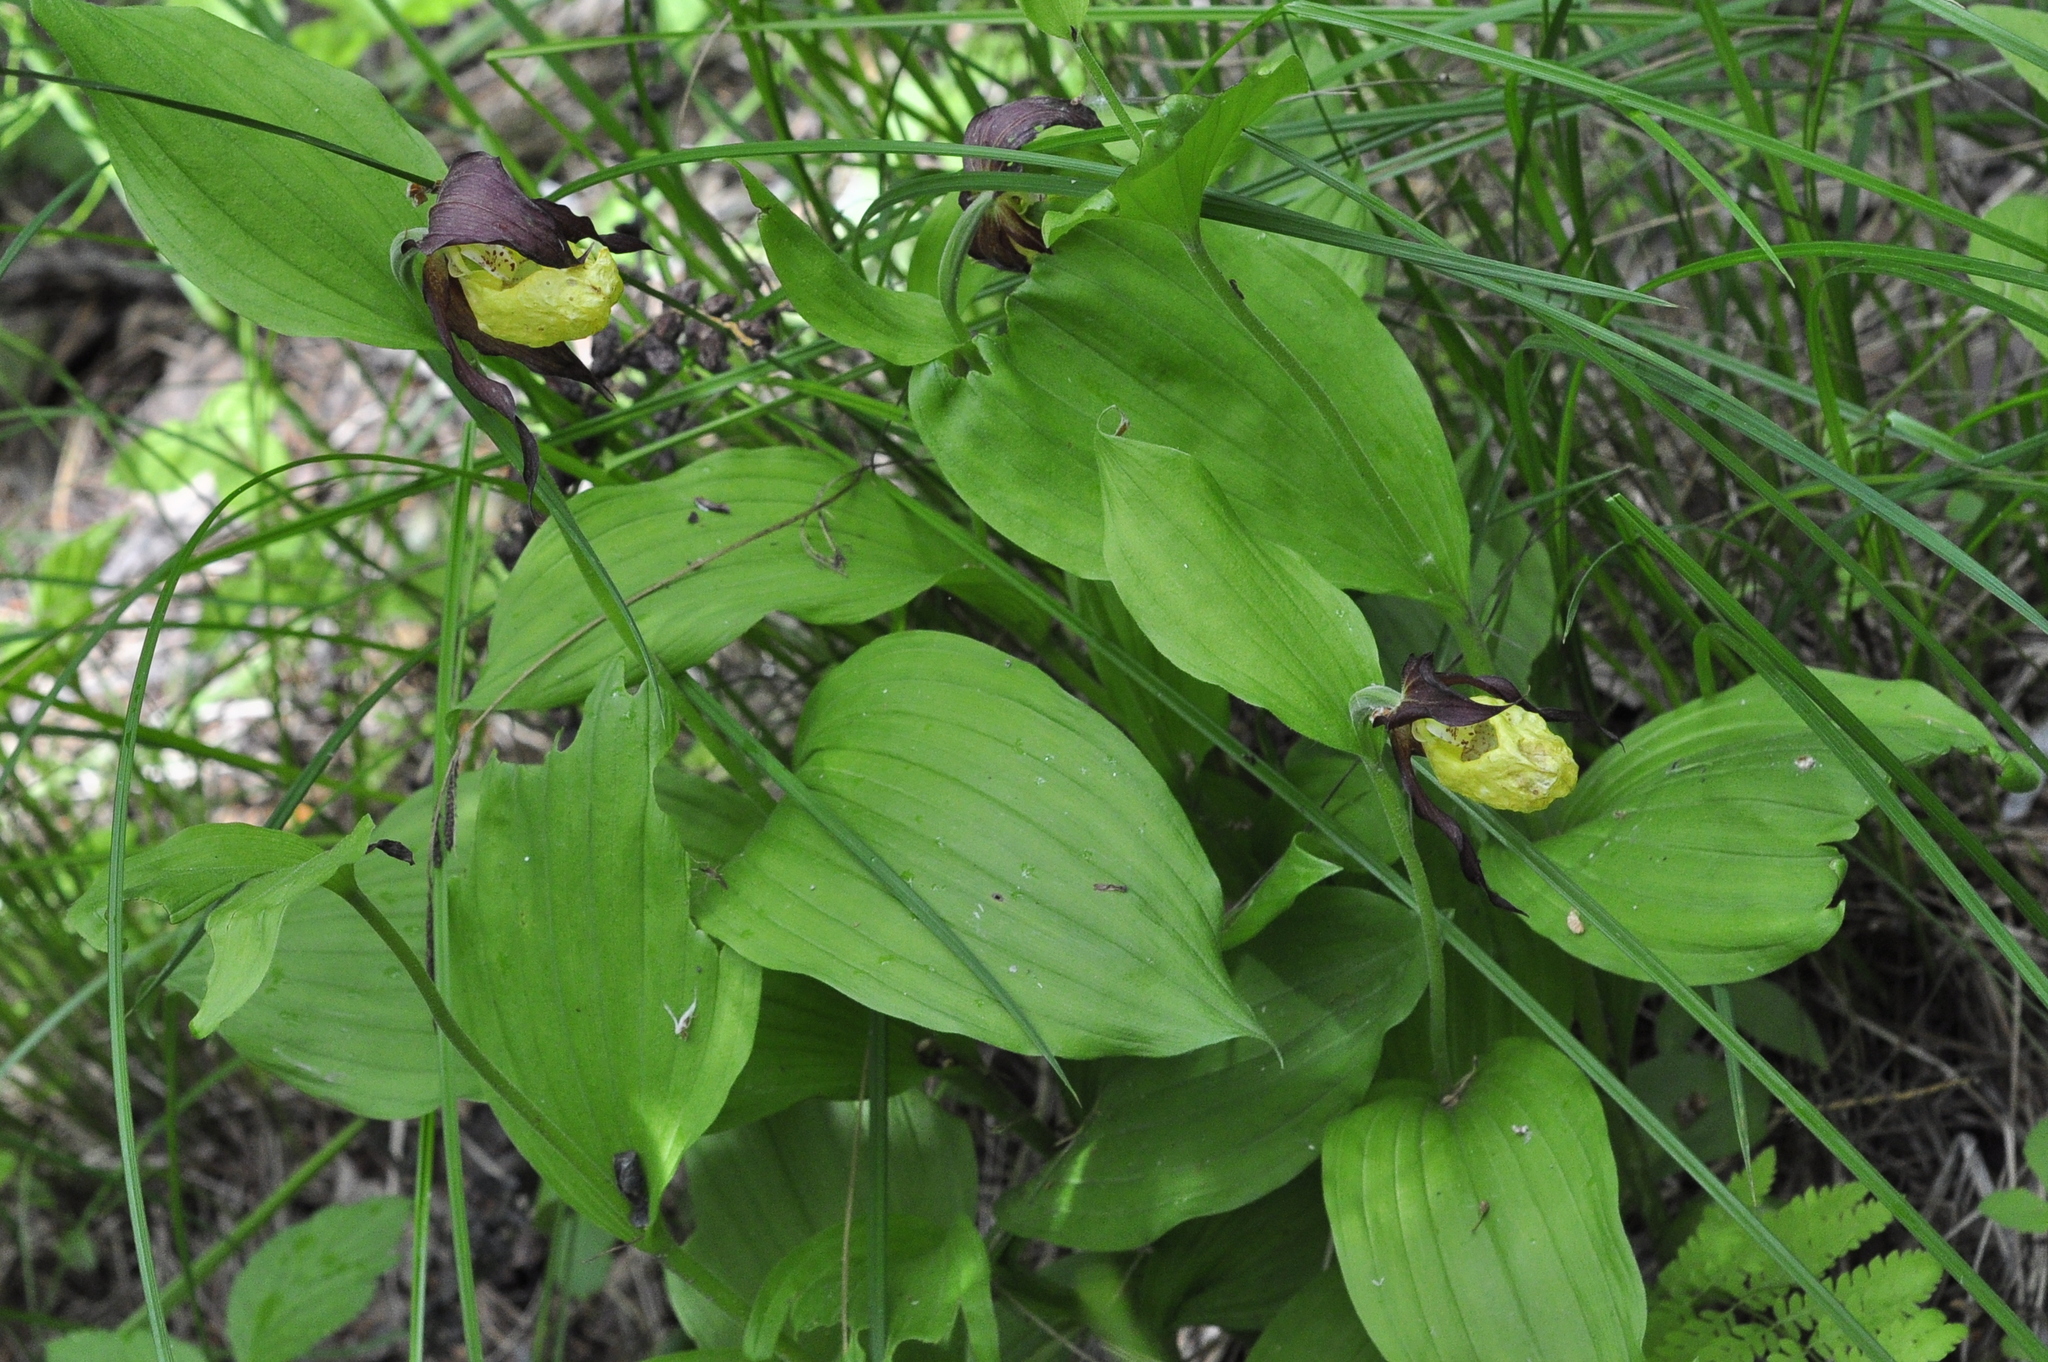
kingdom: Plantae
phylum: Tracheophyta
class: Liliopsida
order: Asparagales
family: Orchidaceae
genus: Cypripedium
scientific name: Cypripedium calceolus
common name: Lady's-slipper
